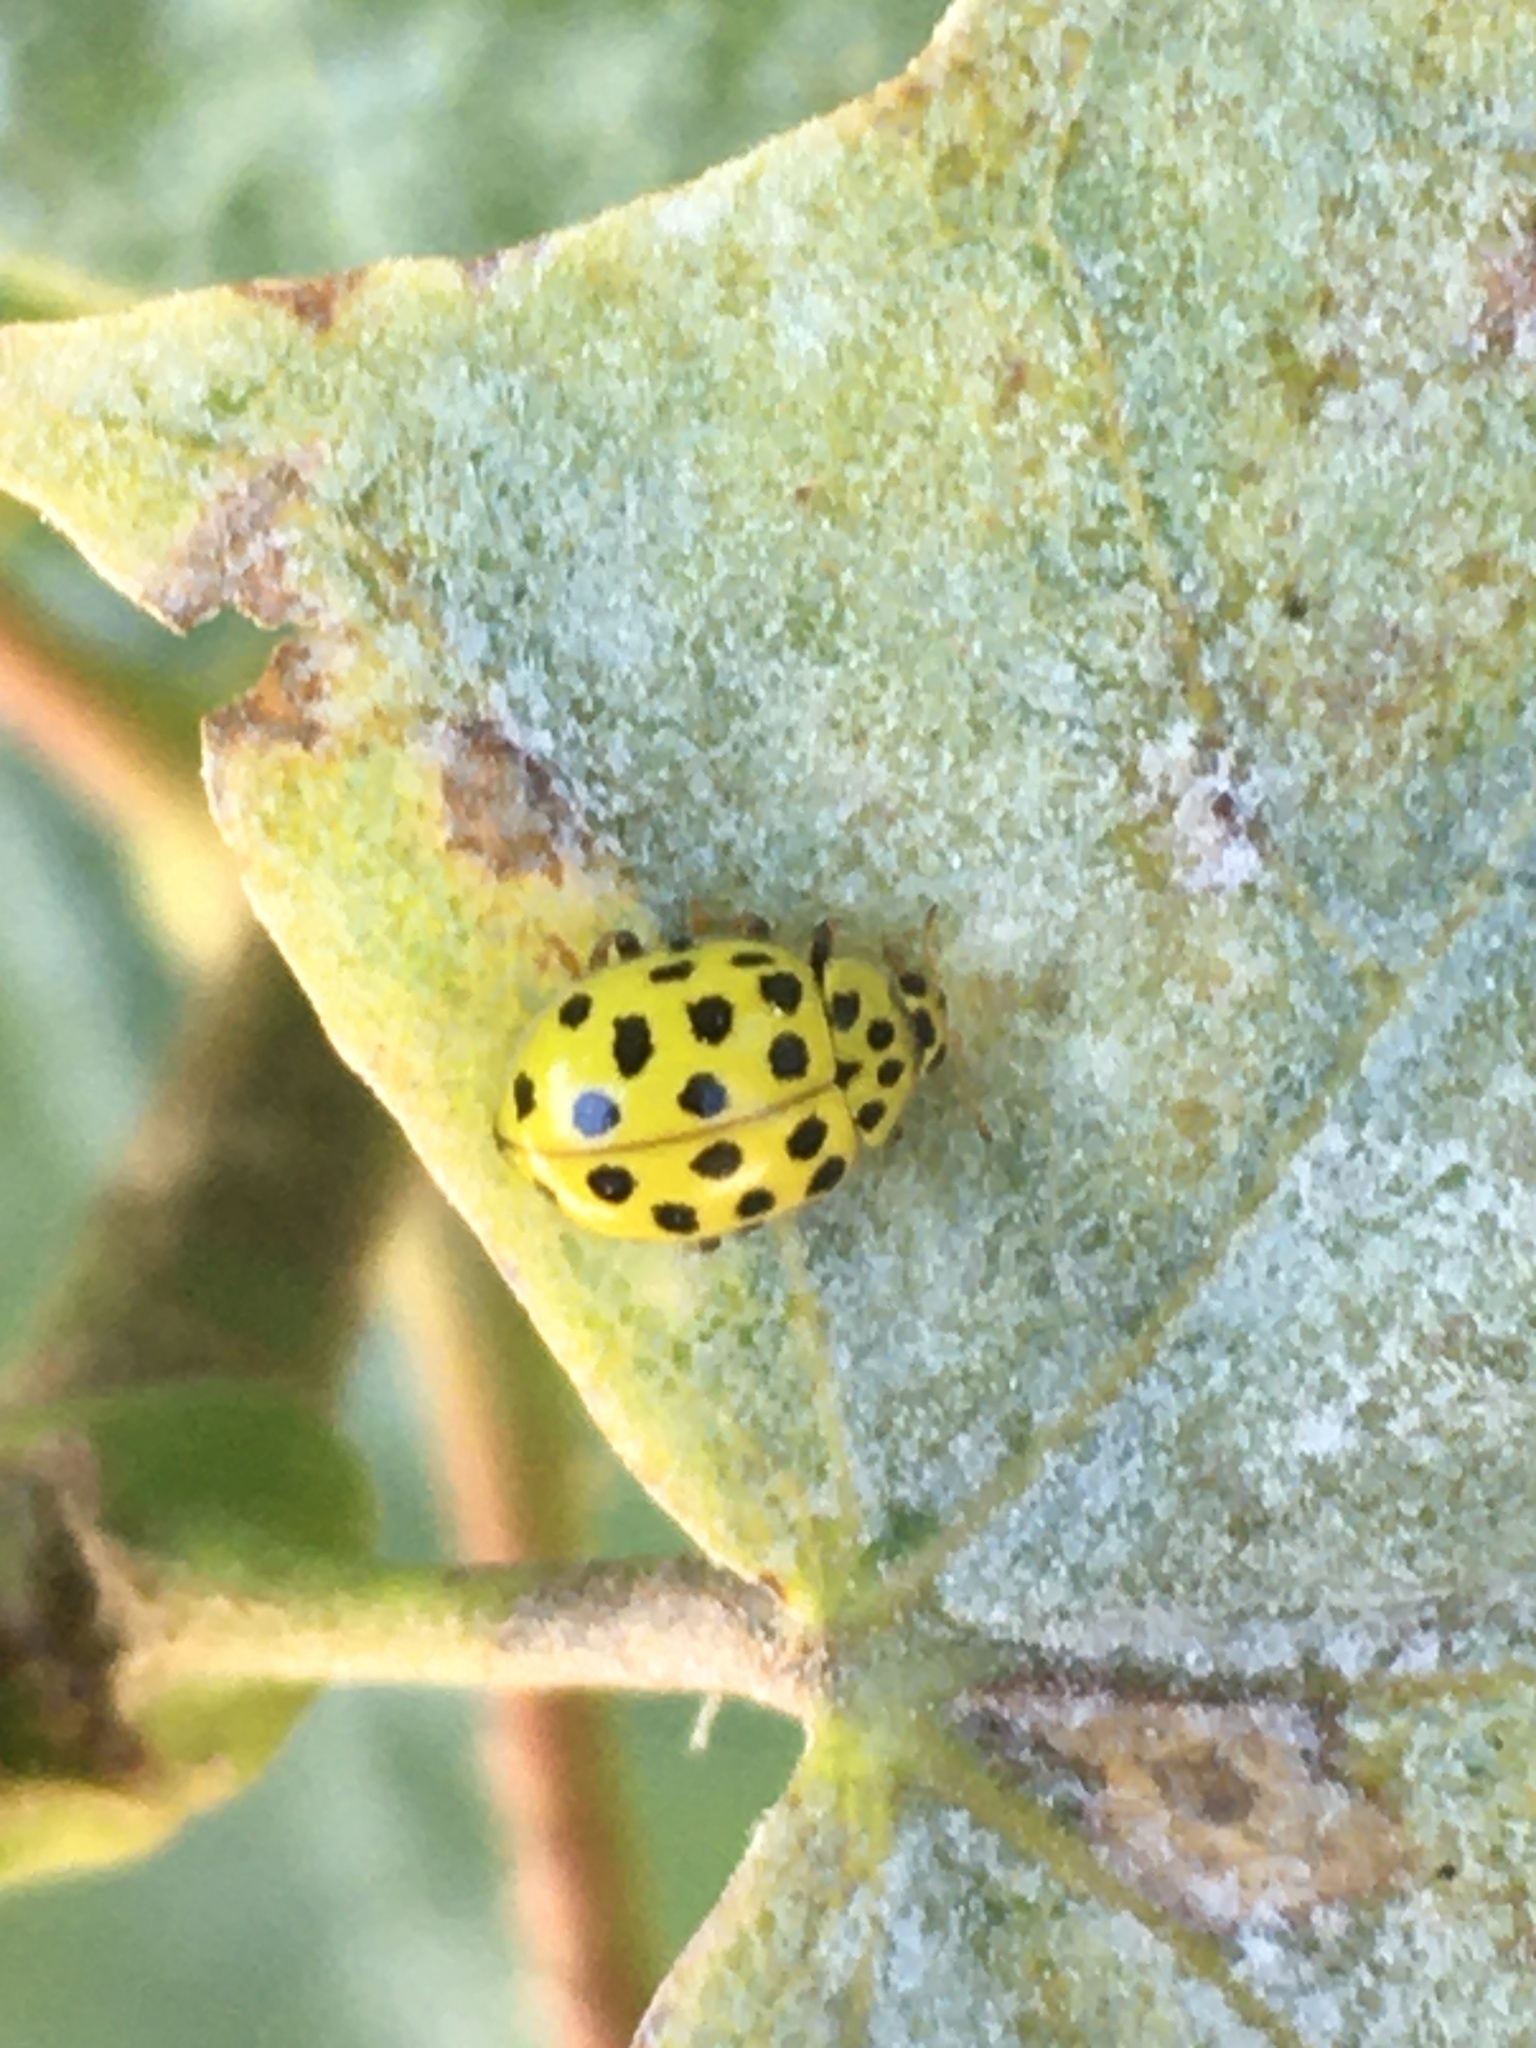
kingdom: Animalia
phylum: Arthropoda
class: Insecta
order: Coleoptera
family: Coccinellidae
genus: Psyllobora
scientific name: Psyllobora vigintiduopunctata
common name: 22-spot ladybird
